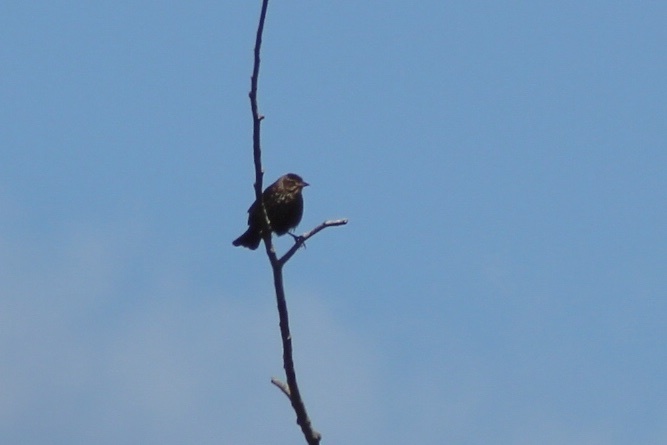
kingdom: Animalia
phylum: Chordata
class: Aves
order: Passeriformes
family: Icteridae
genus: Agelaius
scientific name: Agelaius phoeniceus
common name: Red-winged blackbird
